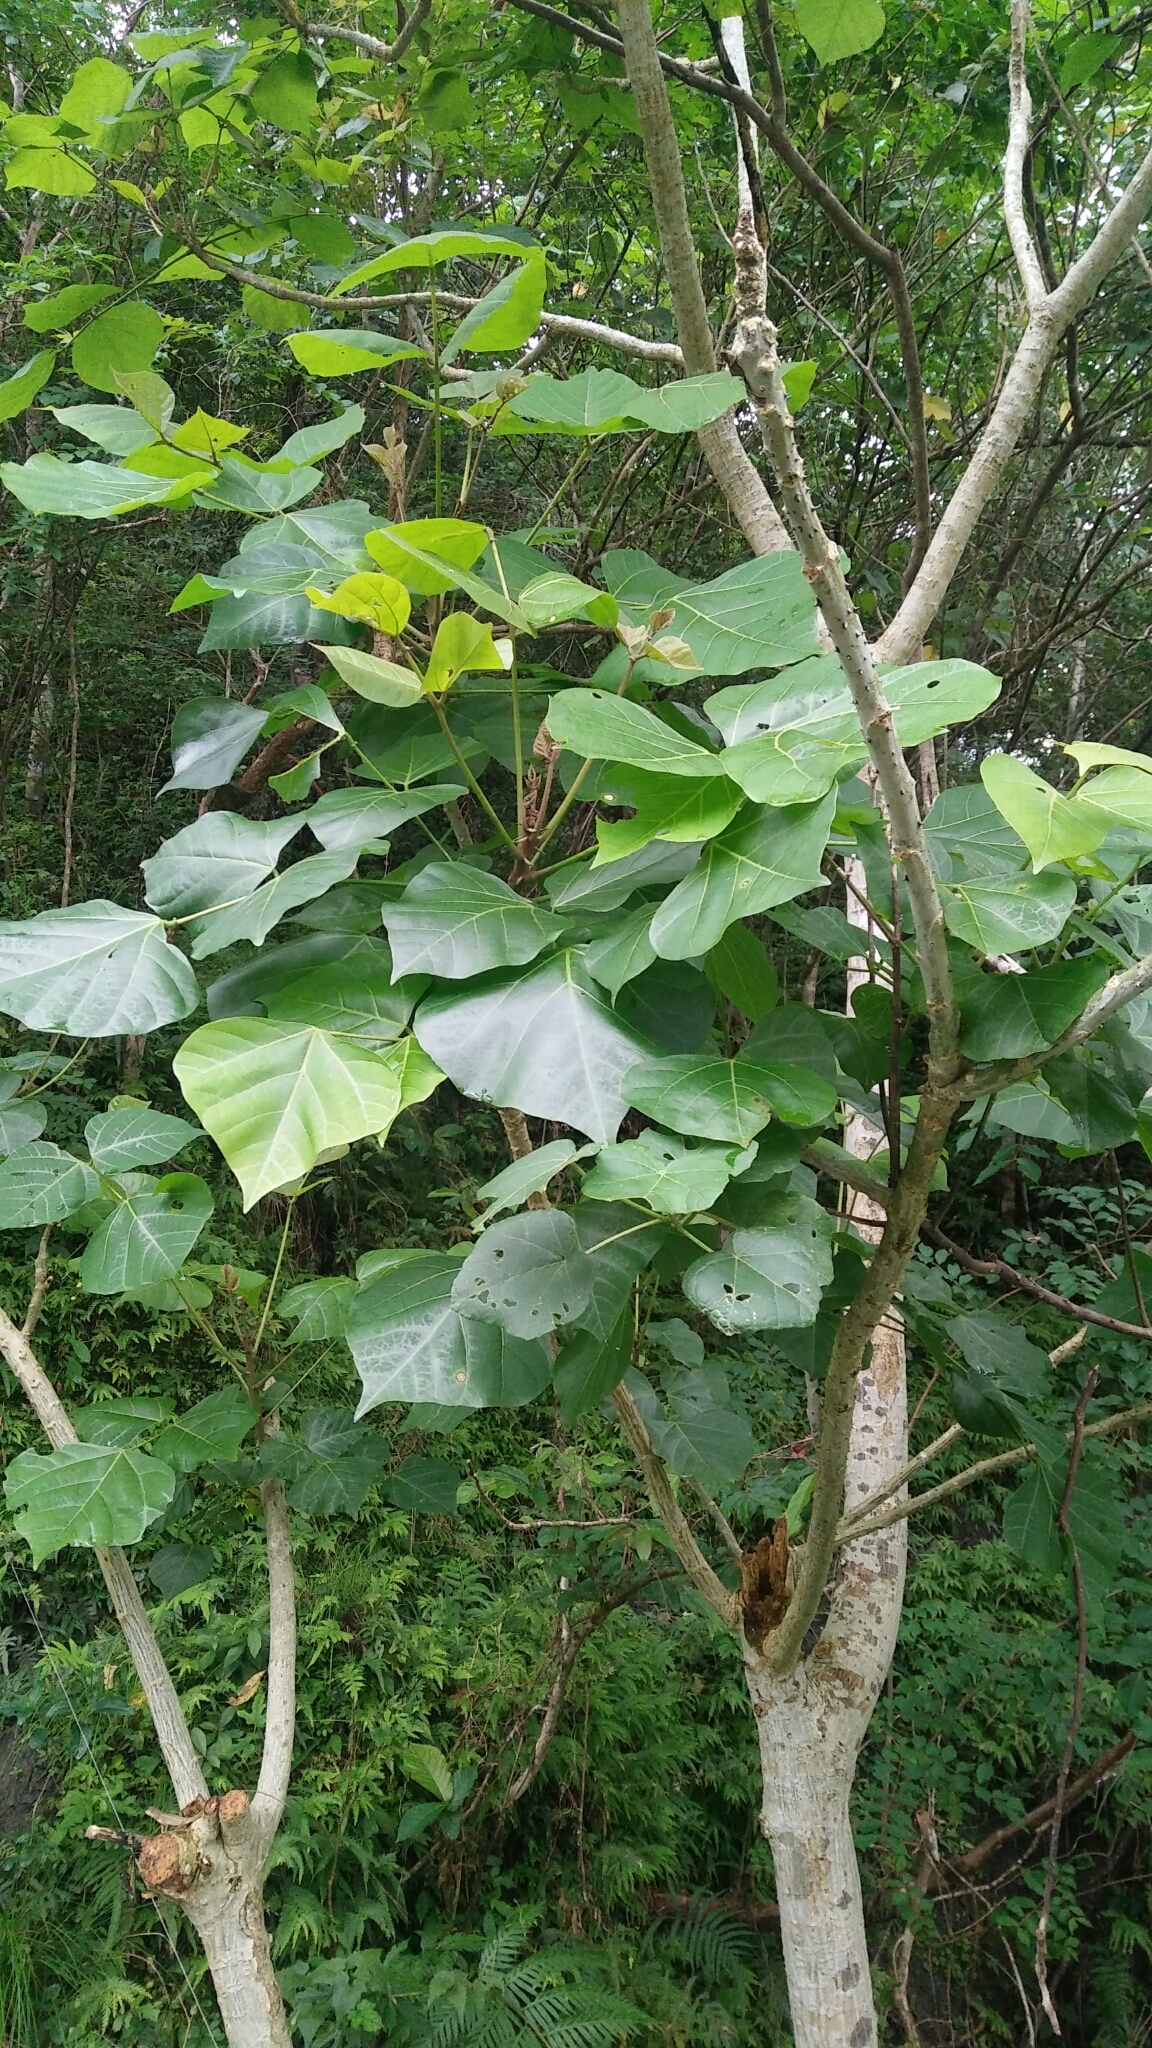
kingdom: Plantae
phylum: Tracheophyta
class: Magnoliopsida
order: Fabales
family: Fabaceae
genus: Erythrina
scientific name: Erythrina variegata
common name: Indian coral tree
